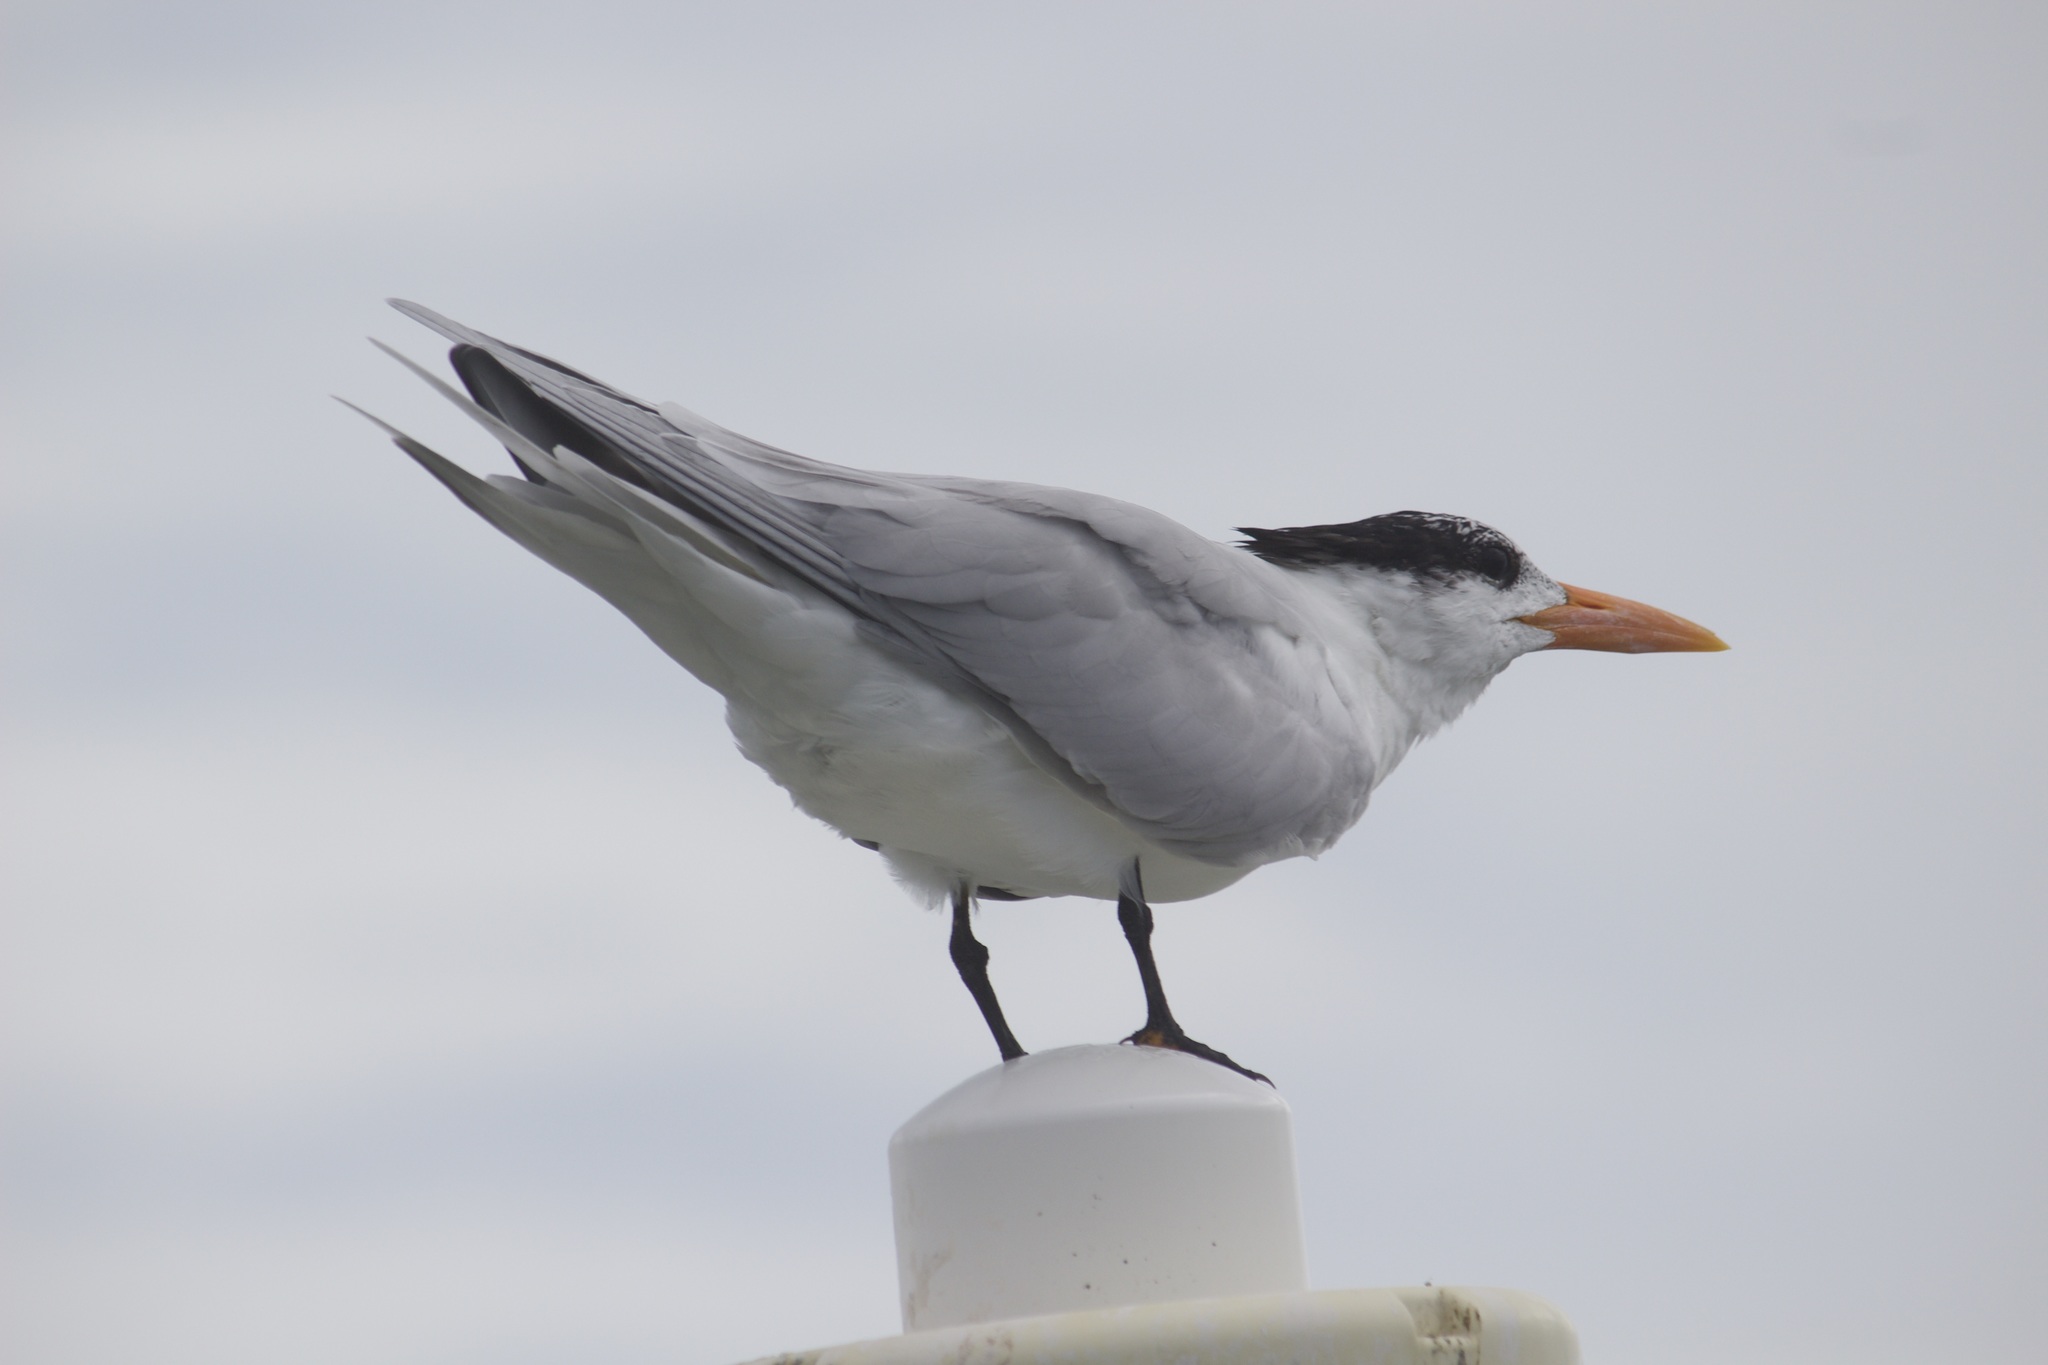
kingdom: Animalia
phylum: Chordata
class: Aves
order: Charadriiformes
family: Laridae
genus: Thalasseus
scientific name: Thalasseus maximus
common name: Royal tern
